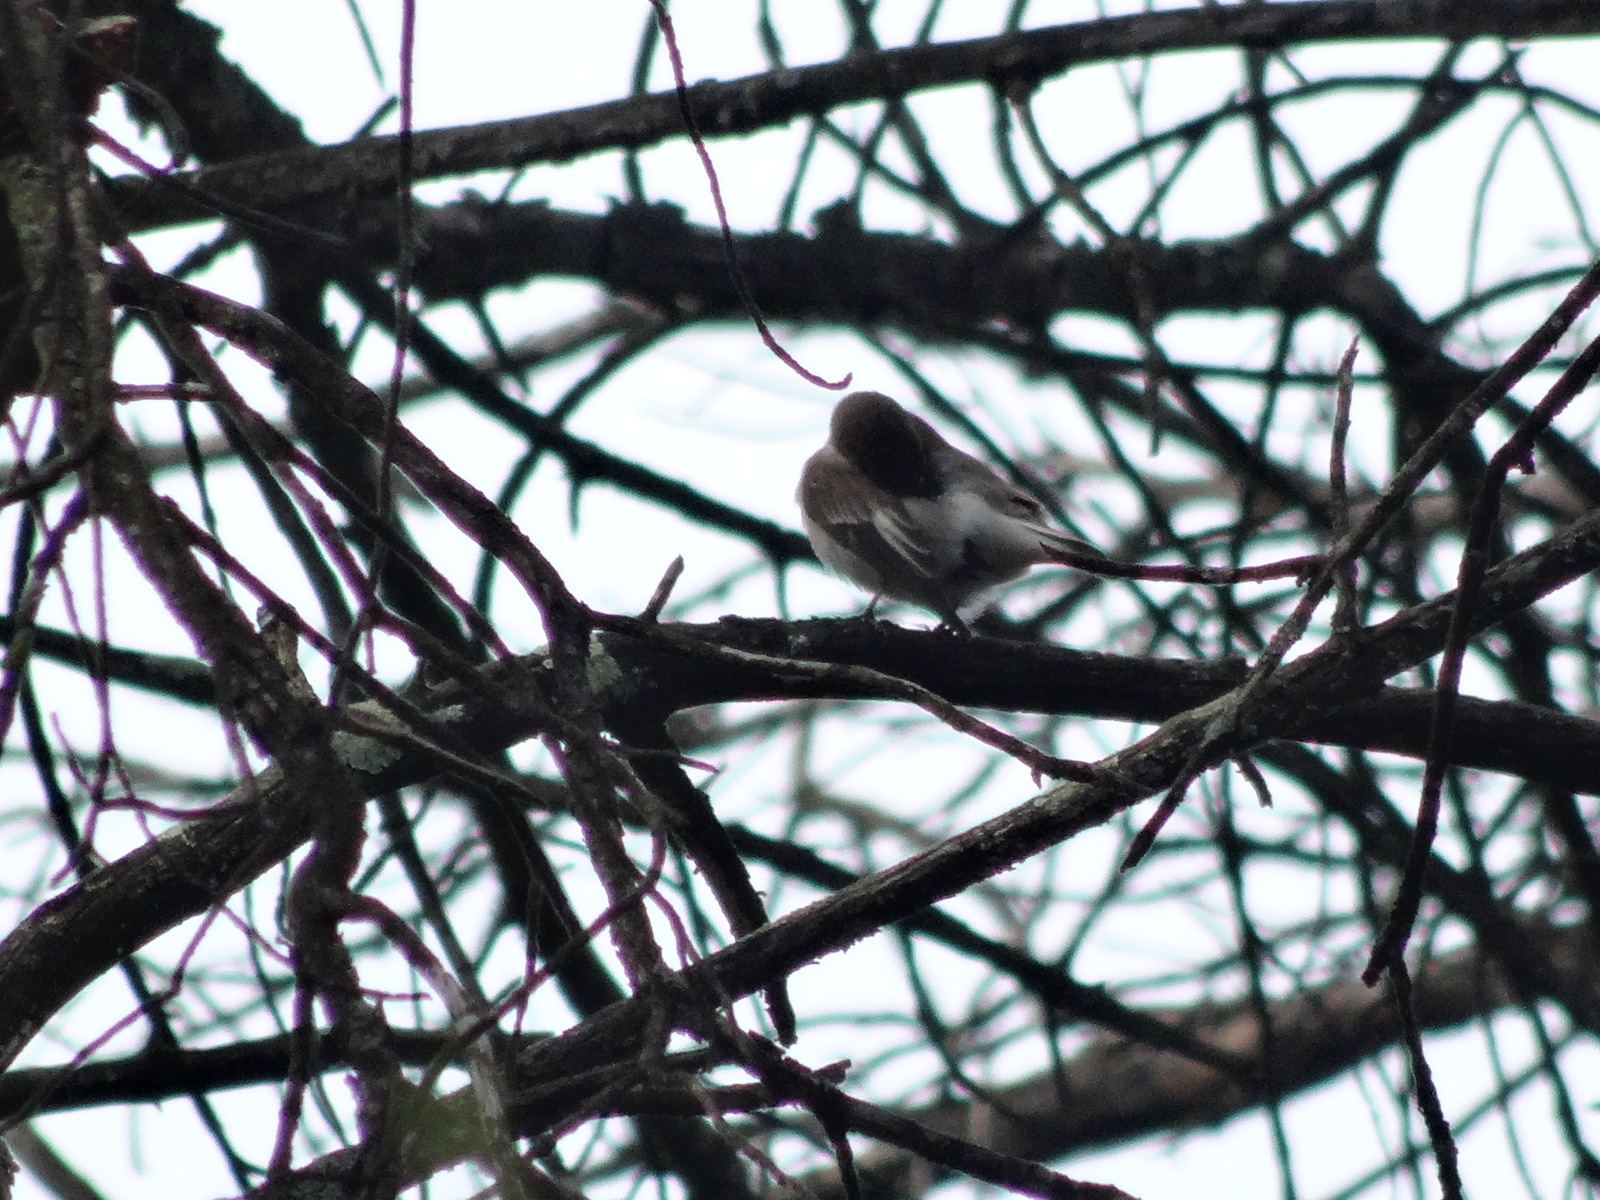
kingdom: Animalia
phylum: Chordata
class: Aves
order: Passeriformes
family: Muscicapidae
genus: Ficedula
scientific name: Ficedula hypoleuca
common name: European pied flycatcher
